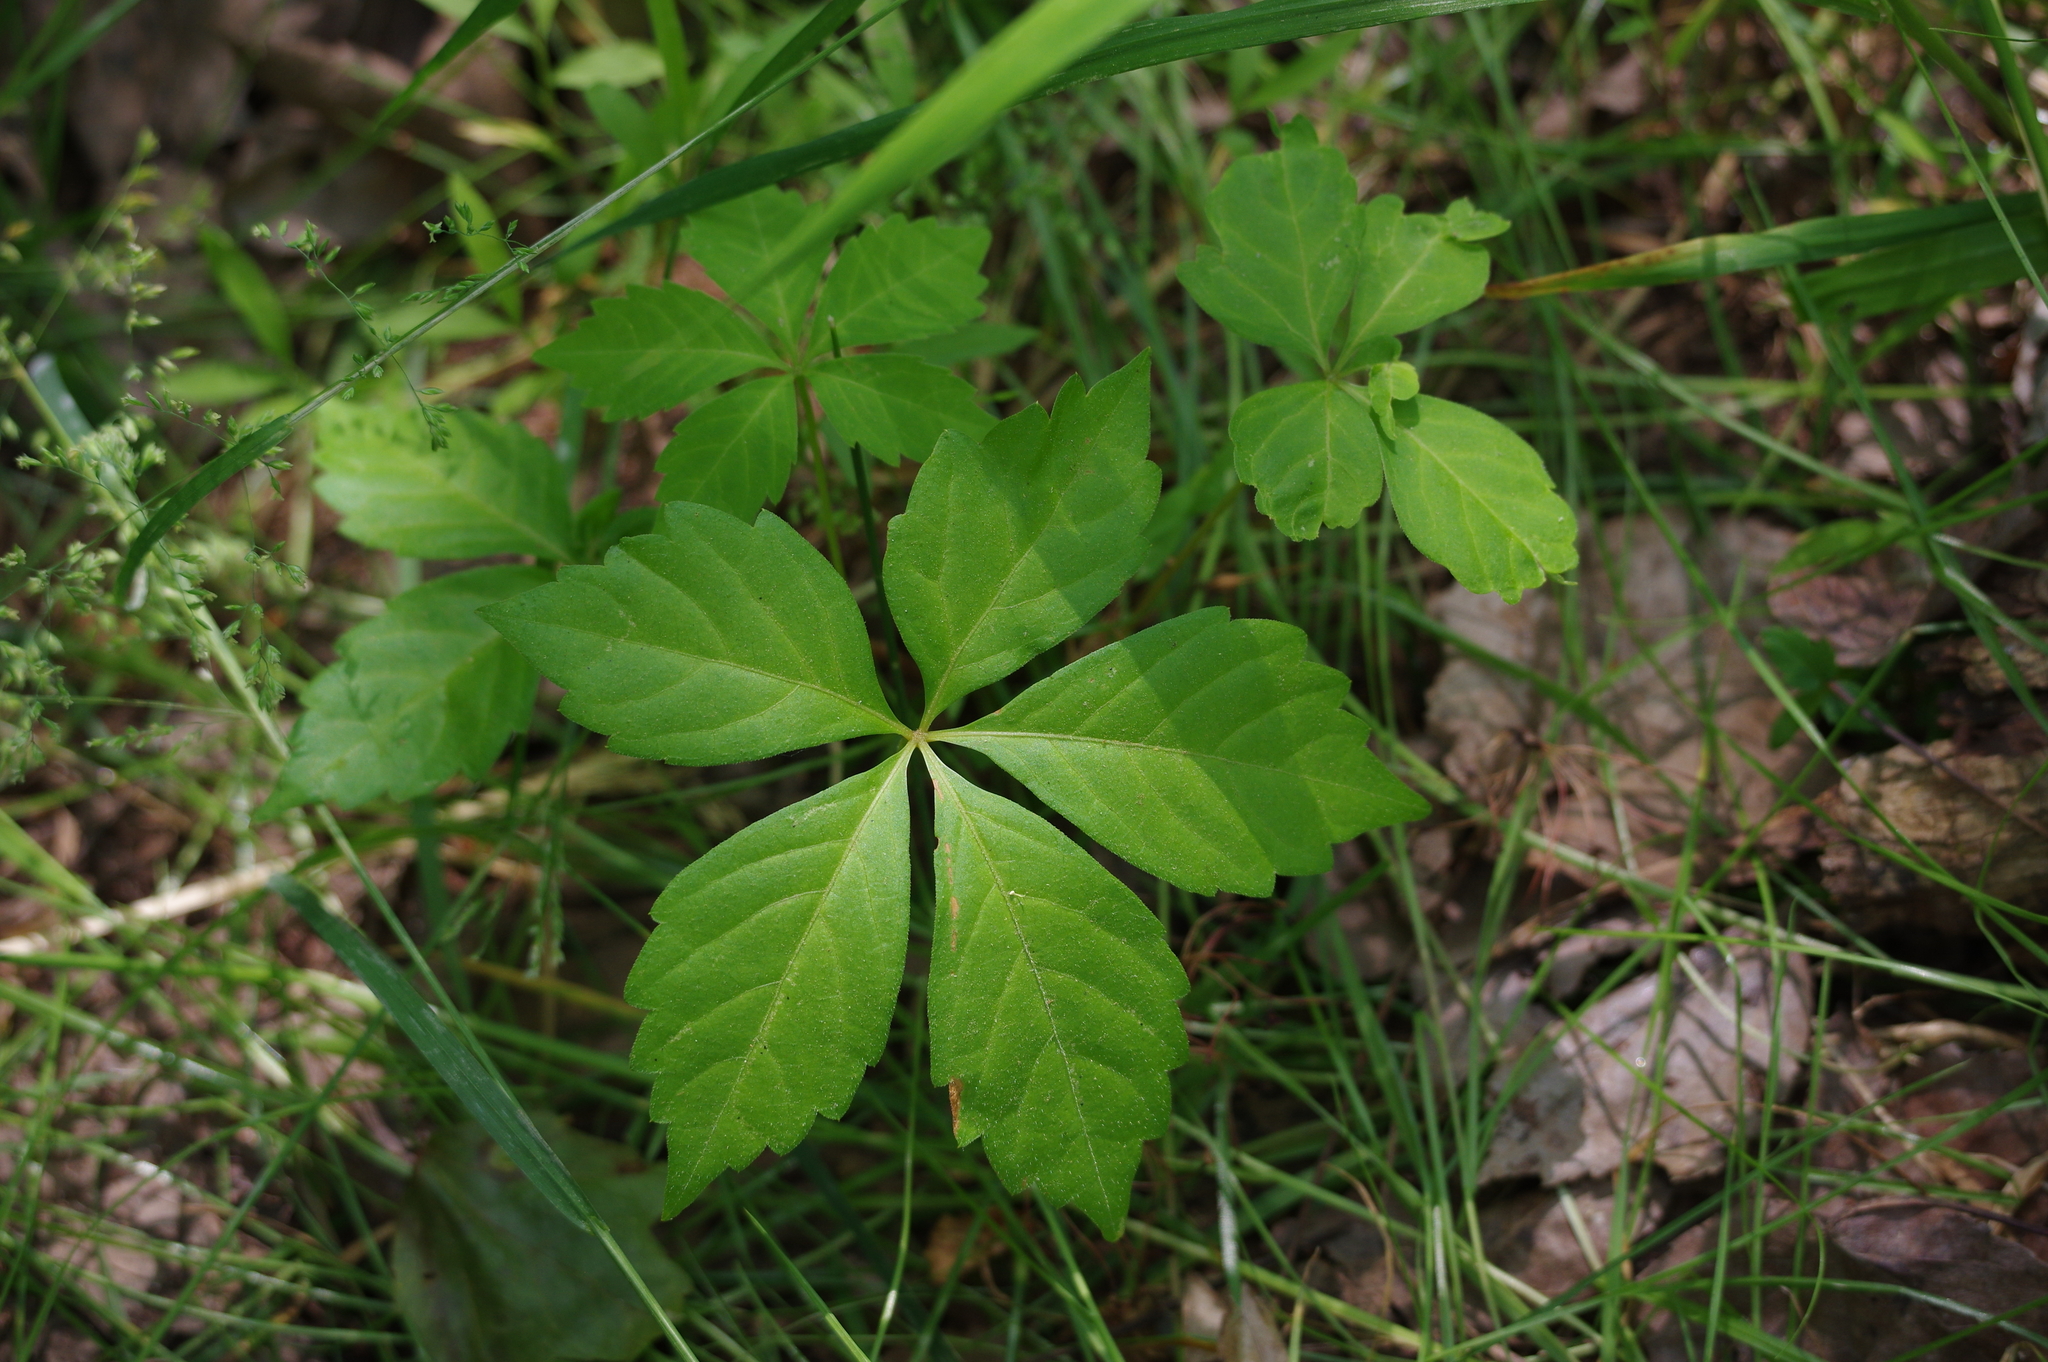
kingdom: Plantae
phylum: Tracheophyta
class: Magnoliopsida
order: Vitales
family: Vitaceae
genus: Parthenocissus
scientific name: Parthenocissus quinquefolia
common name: Virginia-creeper
